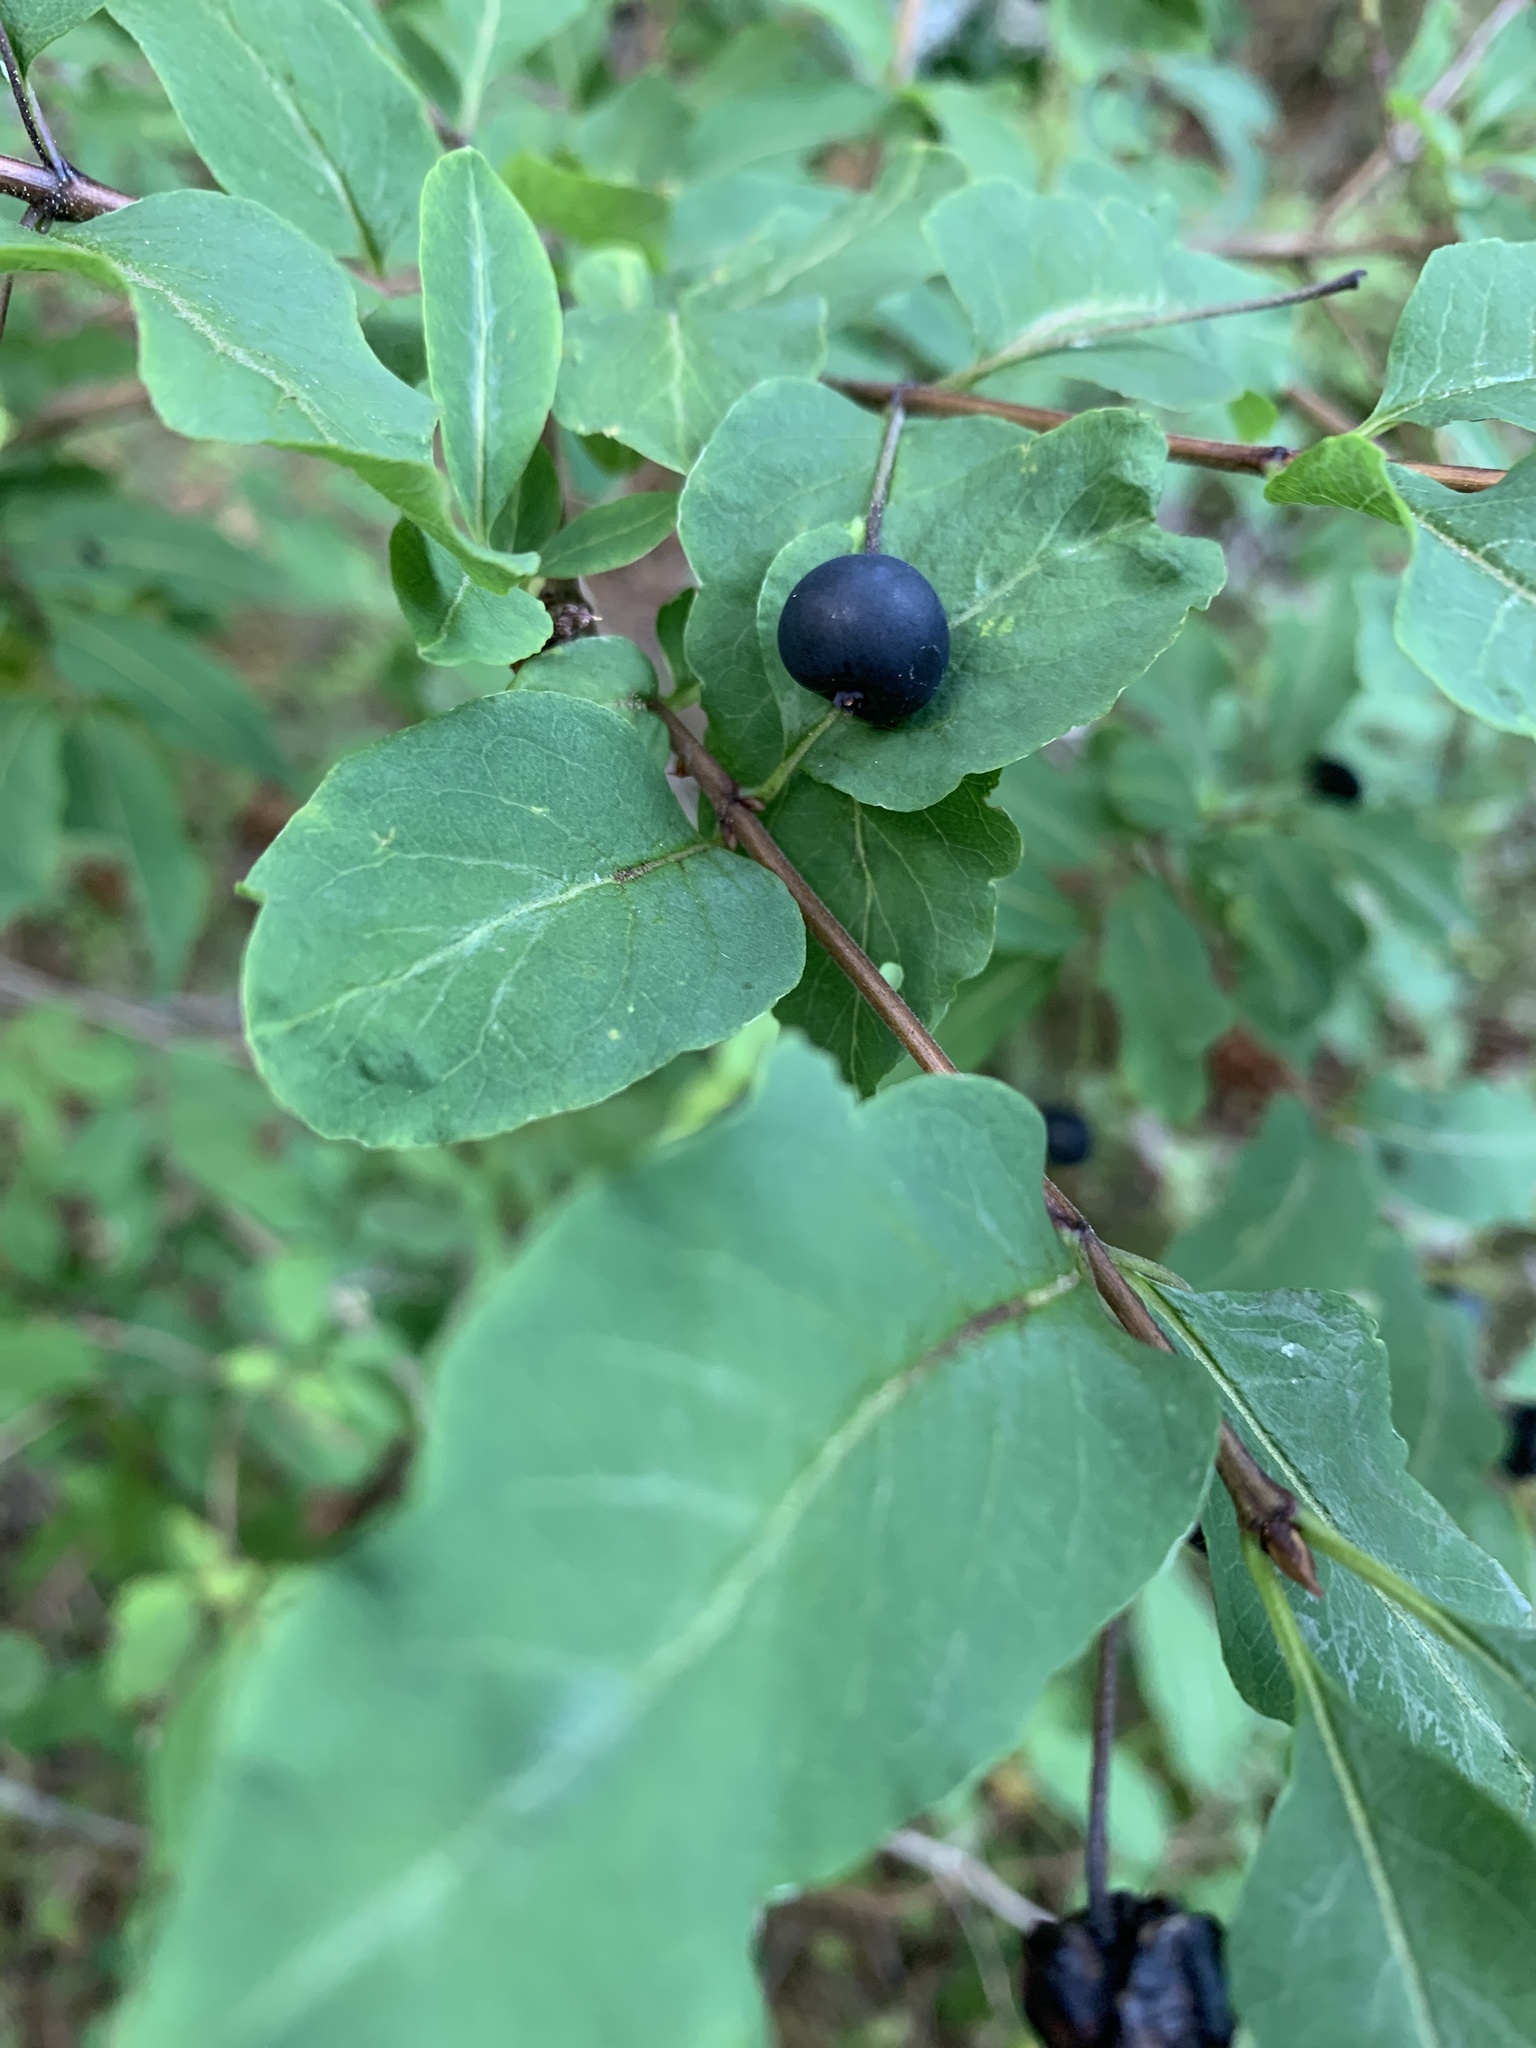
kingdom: Plantae
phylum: Tracheophyta
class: Magnoliopsida
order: Dipsacales
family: Caprifoliaceae
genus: Lonicera
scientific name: Lonicera nigra
